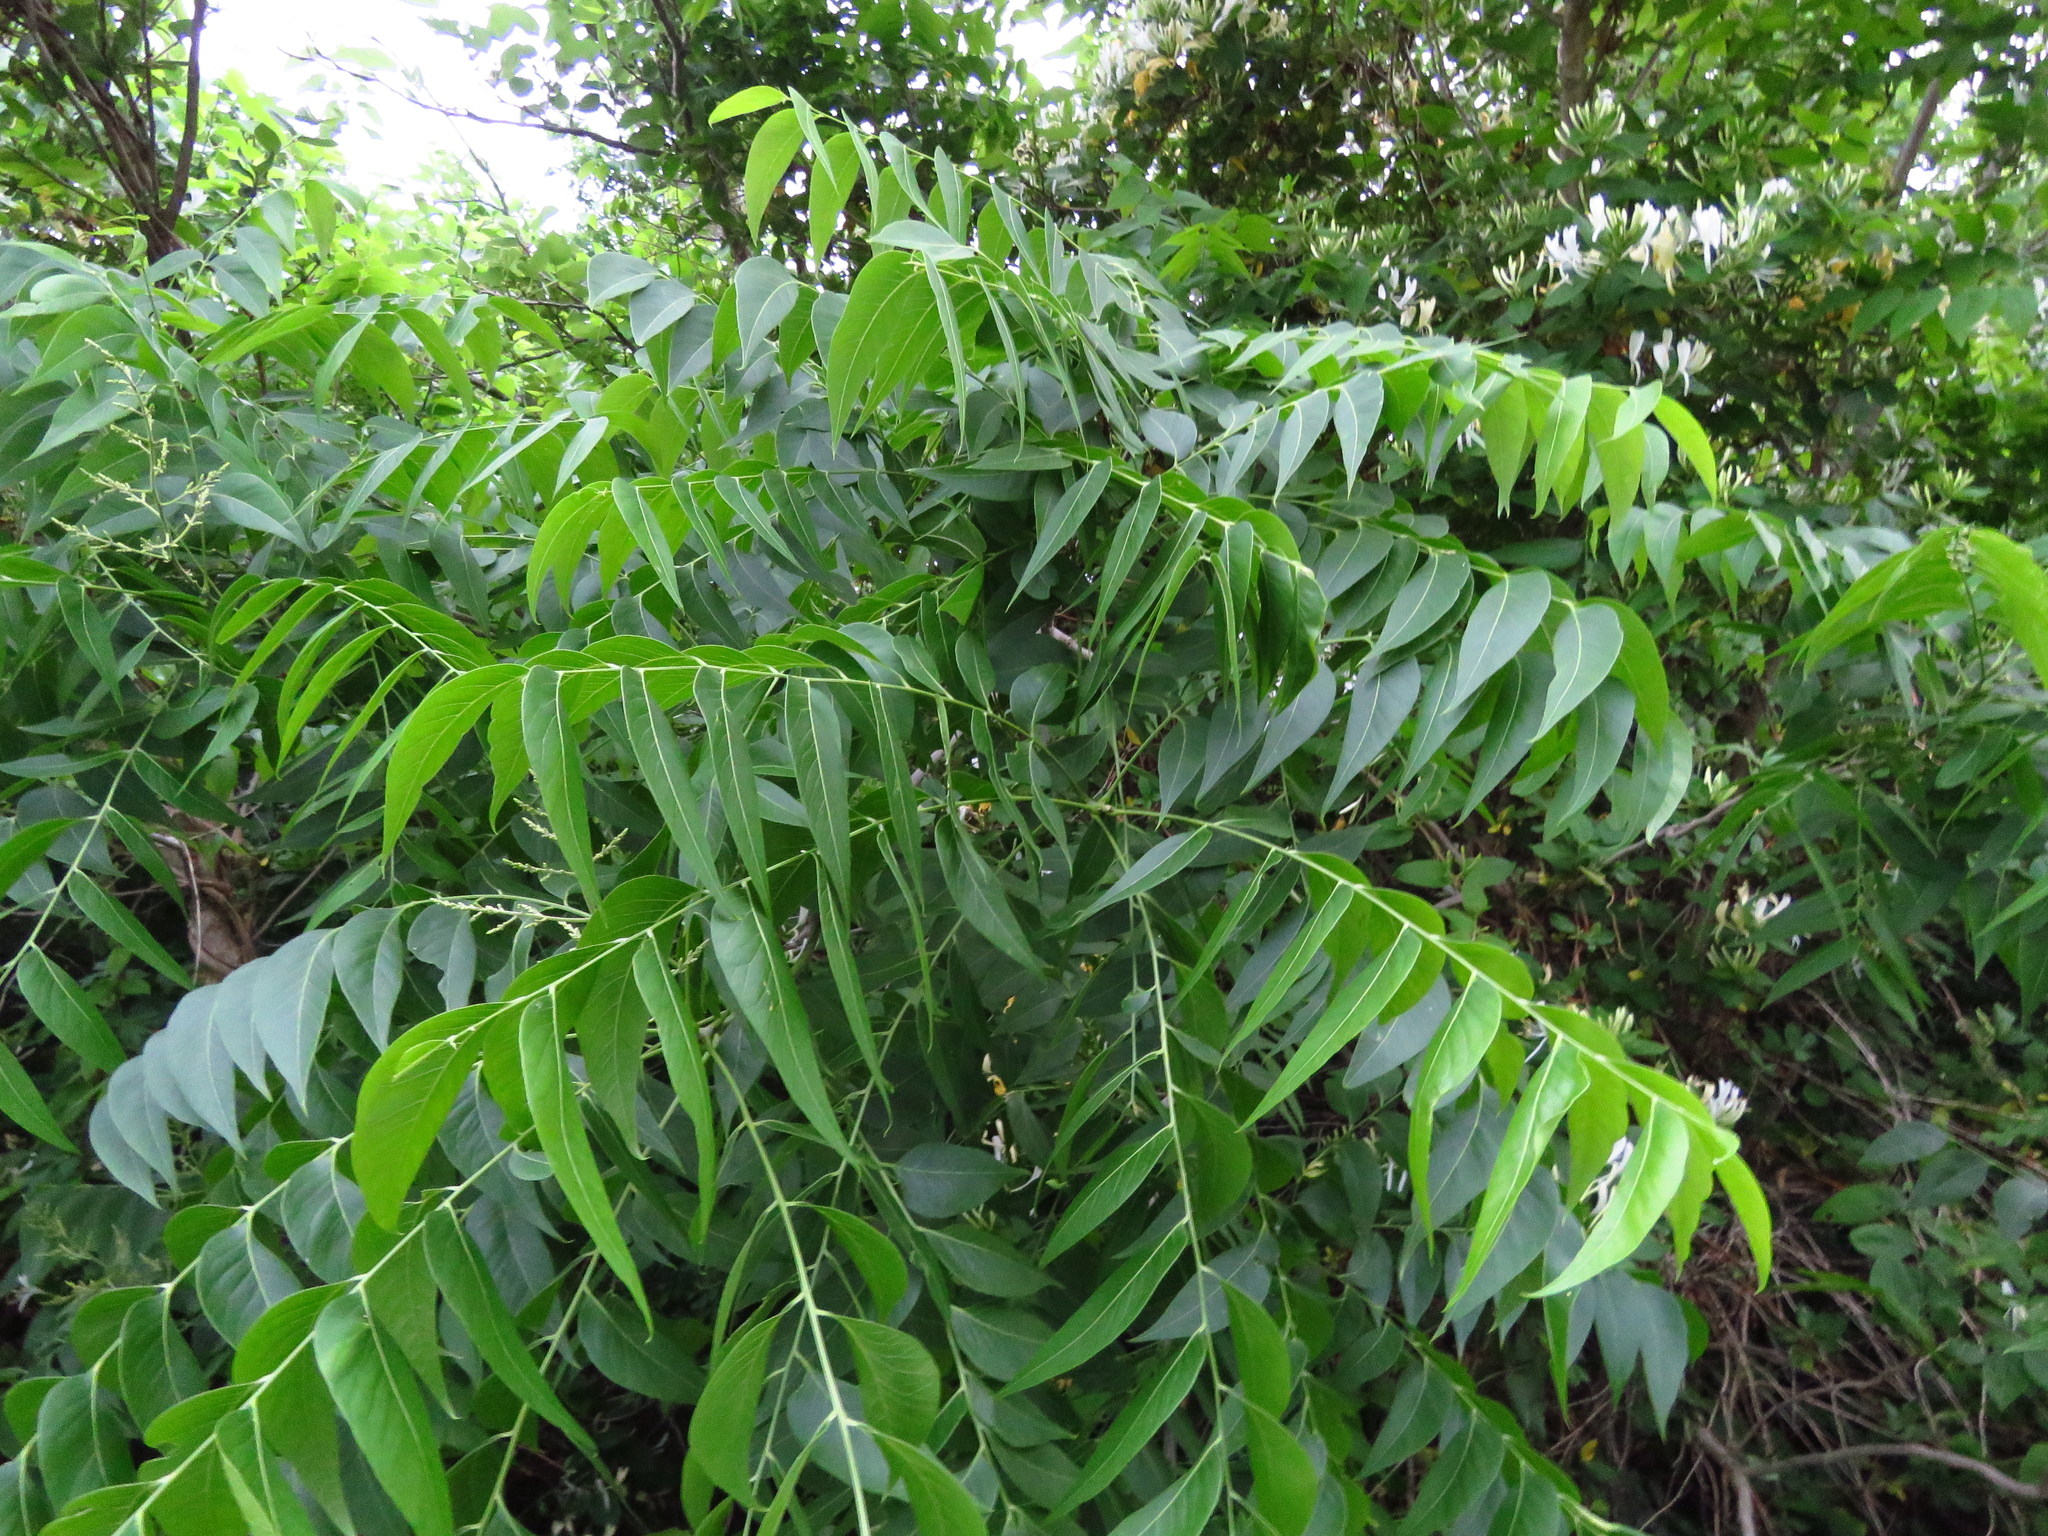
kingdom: Plantae
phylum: Tracheophyta
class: Magnoliopsida
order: Sapindales
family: Sapindaceae
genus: Sapindus
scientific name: Sapindus drummondii
